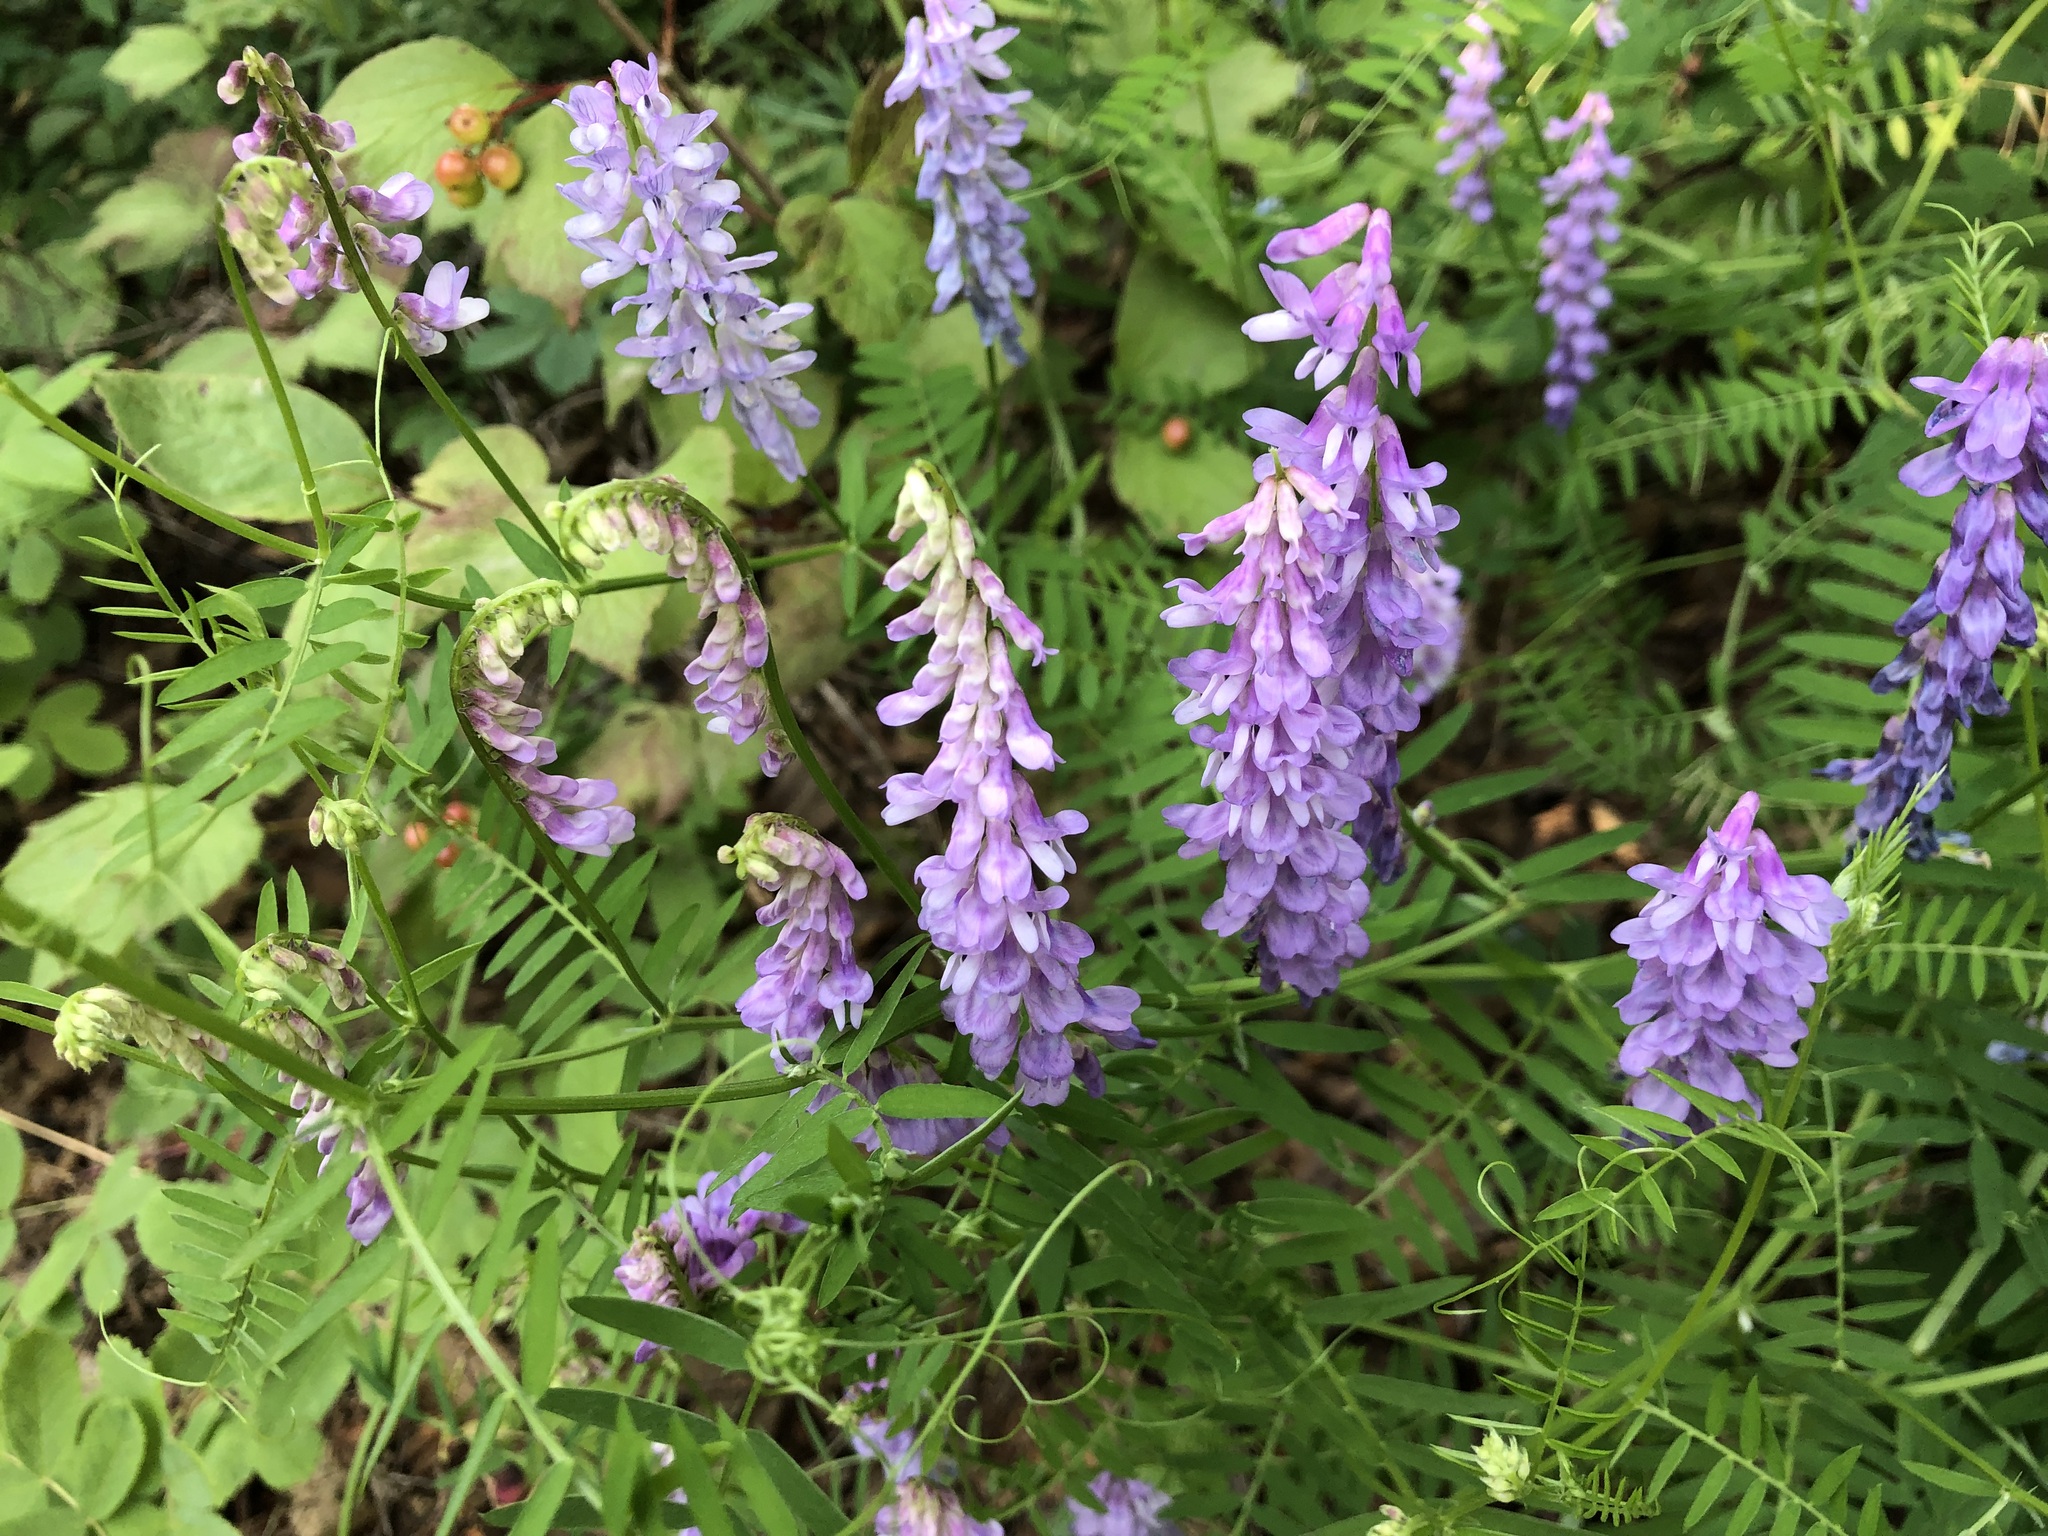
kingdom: Plantae
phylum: Tracheophyta
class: Magnoliopsida
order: Fabales
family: Fabaceae
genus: Vicia
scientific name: Vicia cracca
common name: Bird vetch
